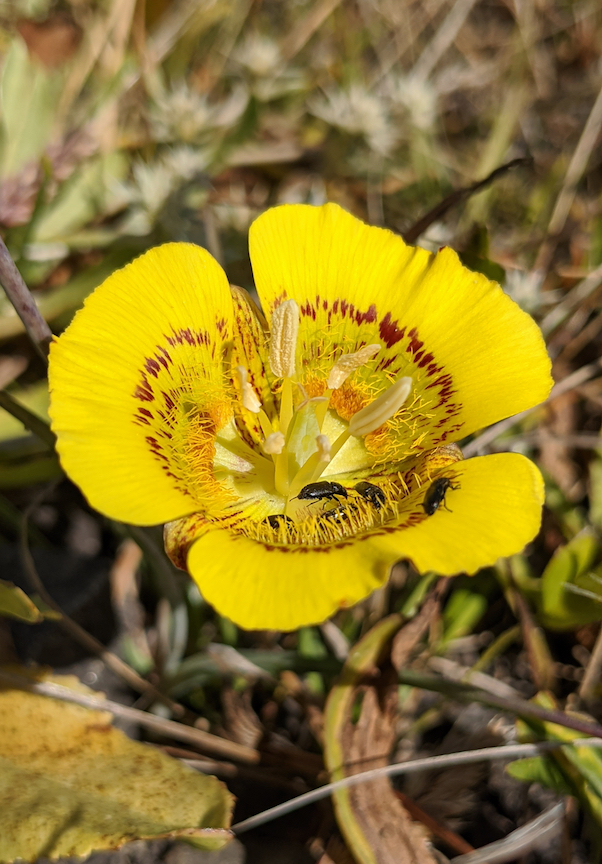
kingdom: Plantae
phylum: Tracheophyta
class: Liliopsida
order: Liliales
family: Liliaceae
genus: Calochortus
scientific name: Calochortus luteus
